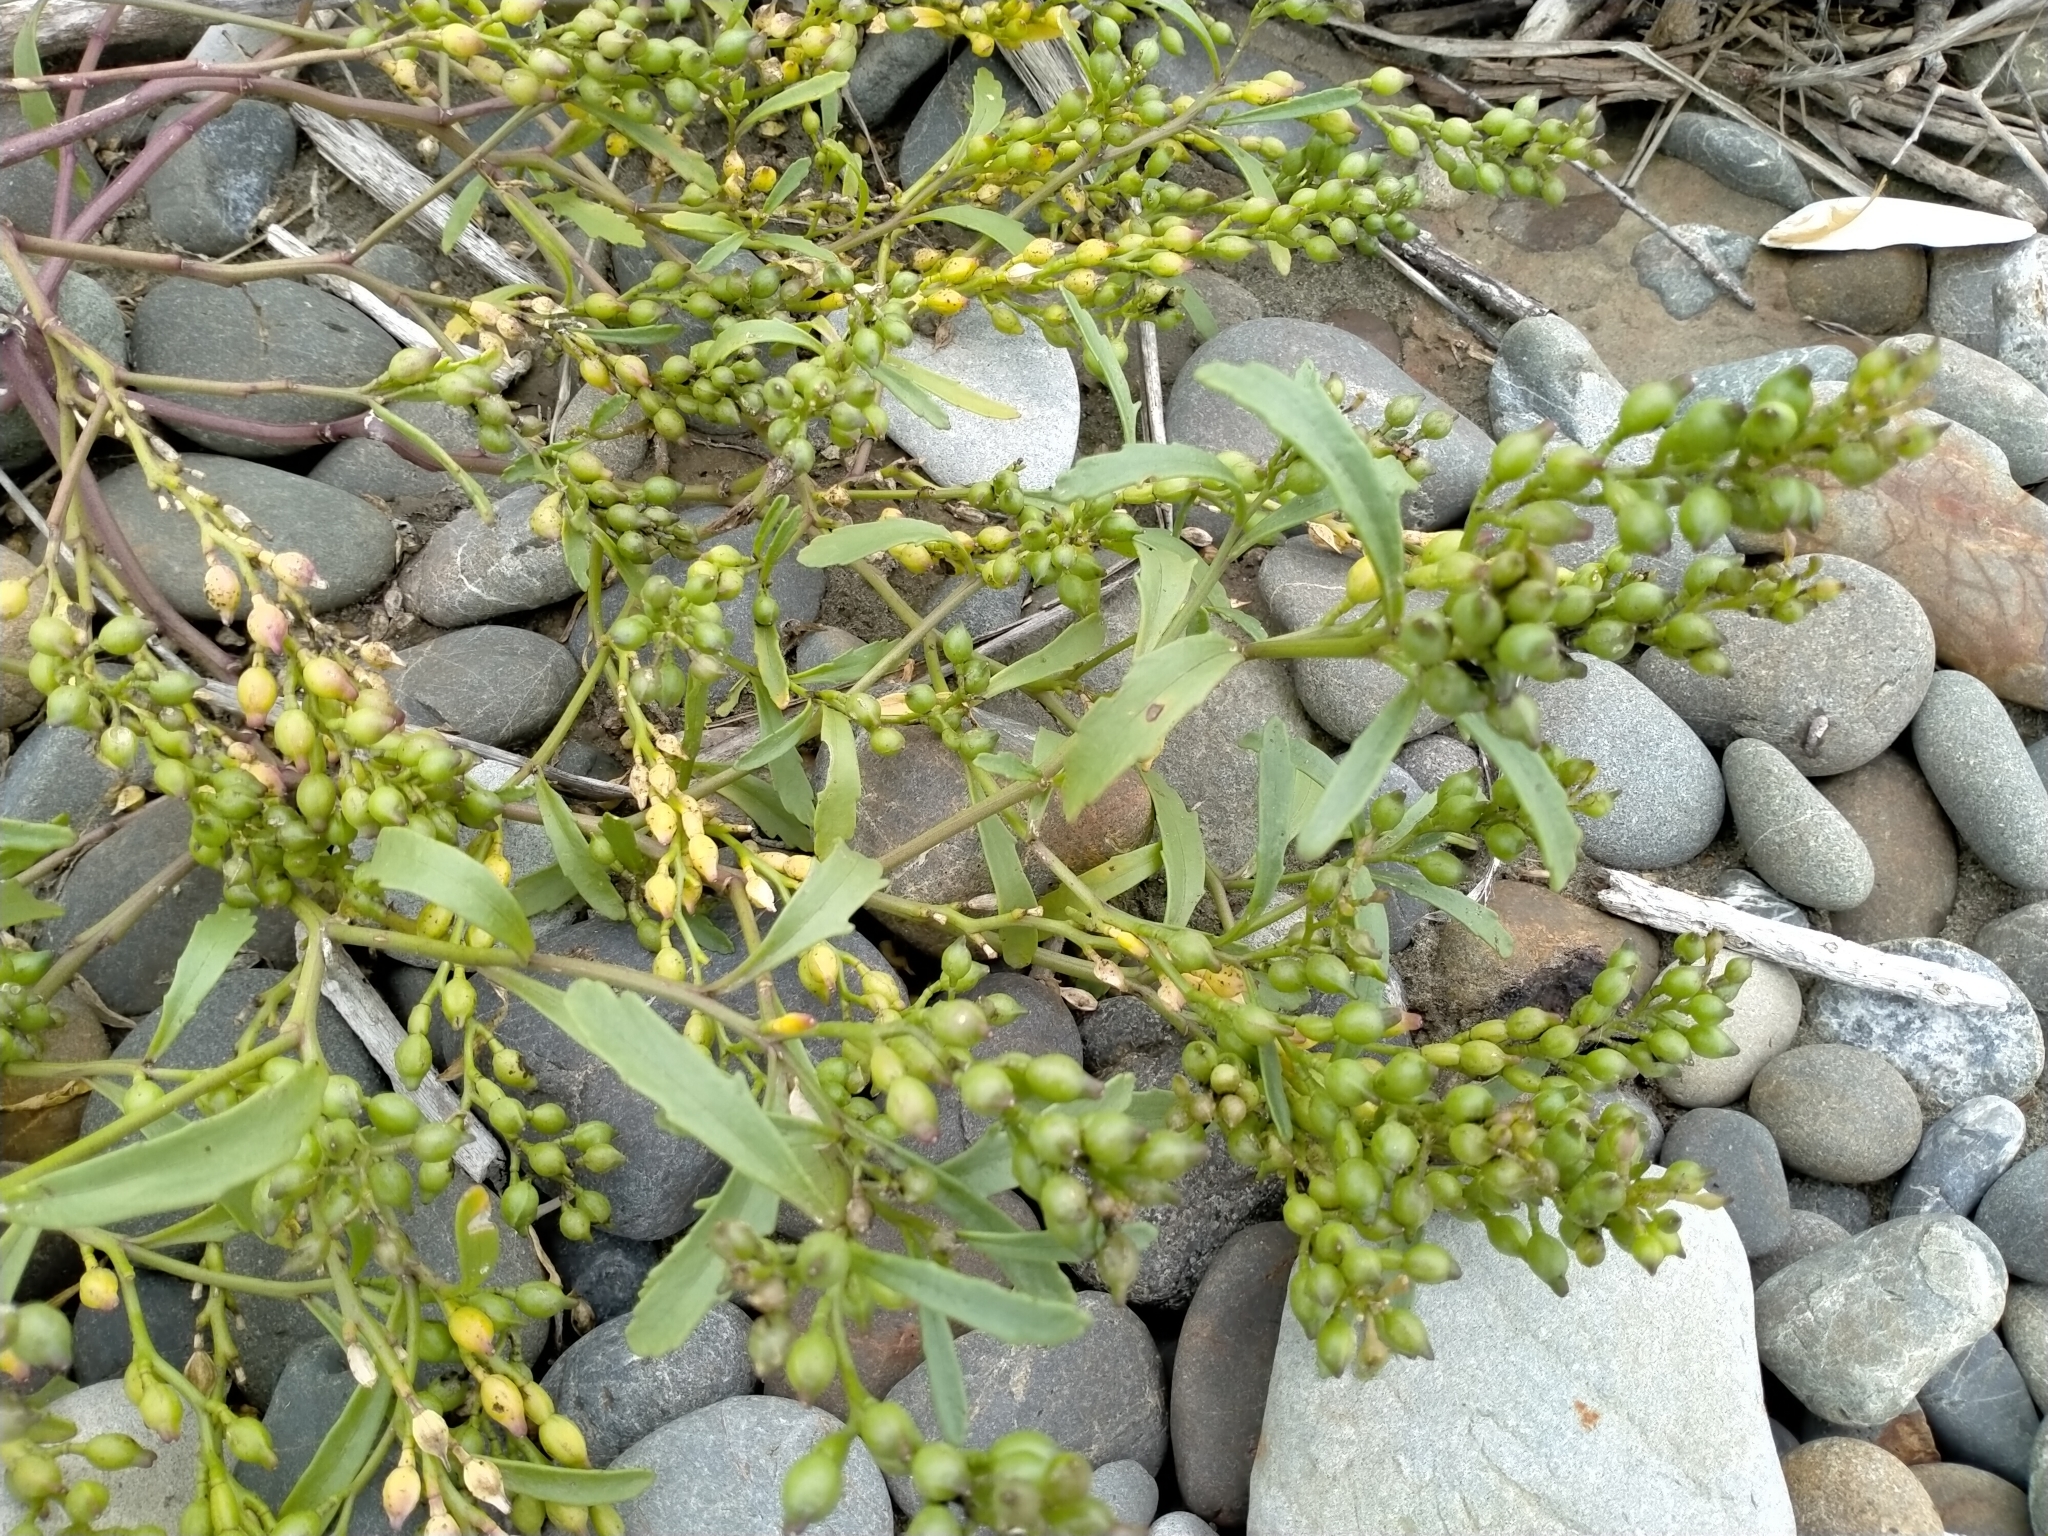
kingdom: Plantae
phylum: Tracheophyta
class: Magnoliopsida
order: Brassicales
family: Brassicaceae
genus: Cakile
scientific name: Cakile edentula
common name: American sea rocket
